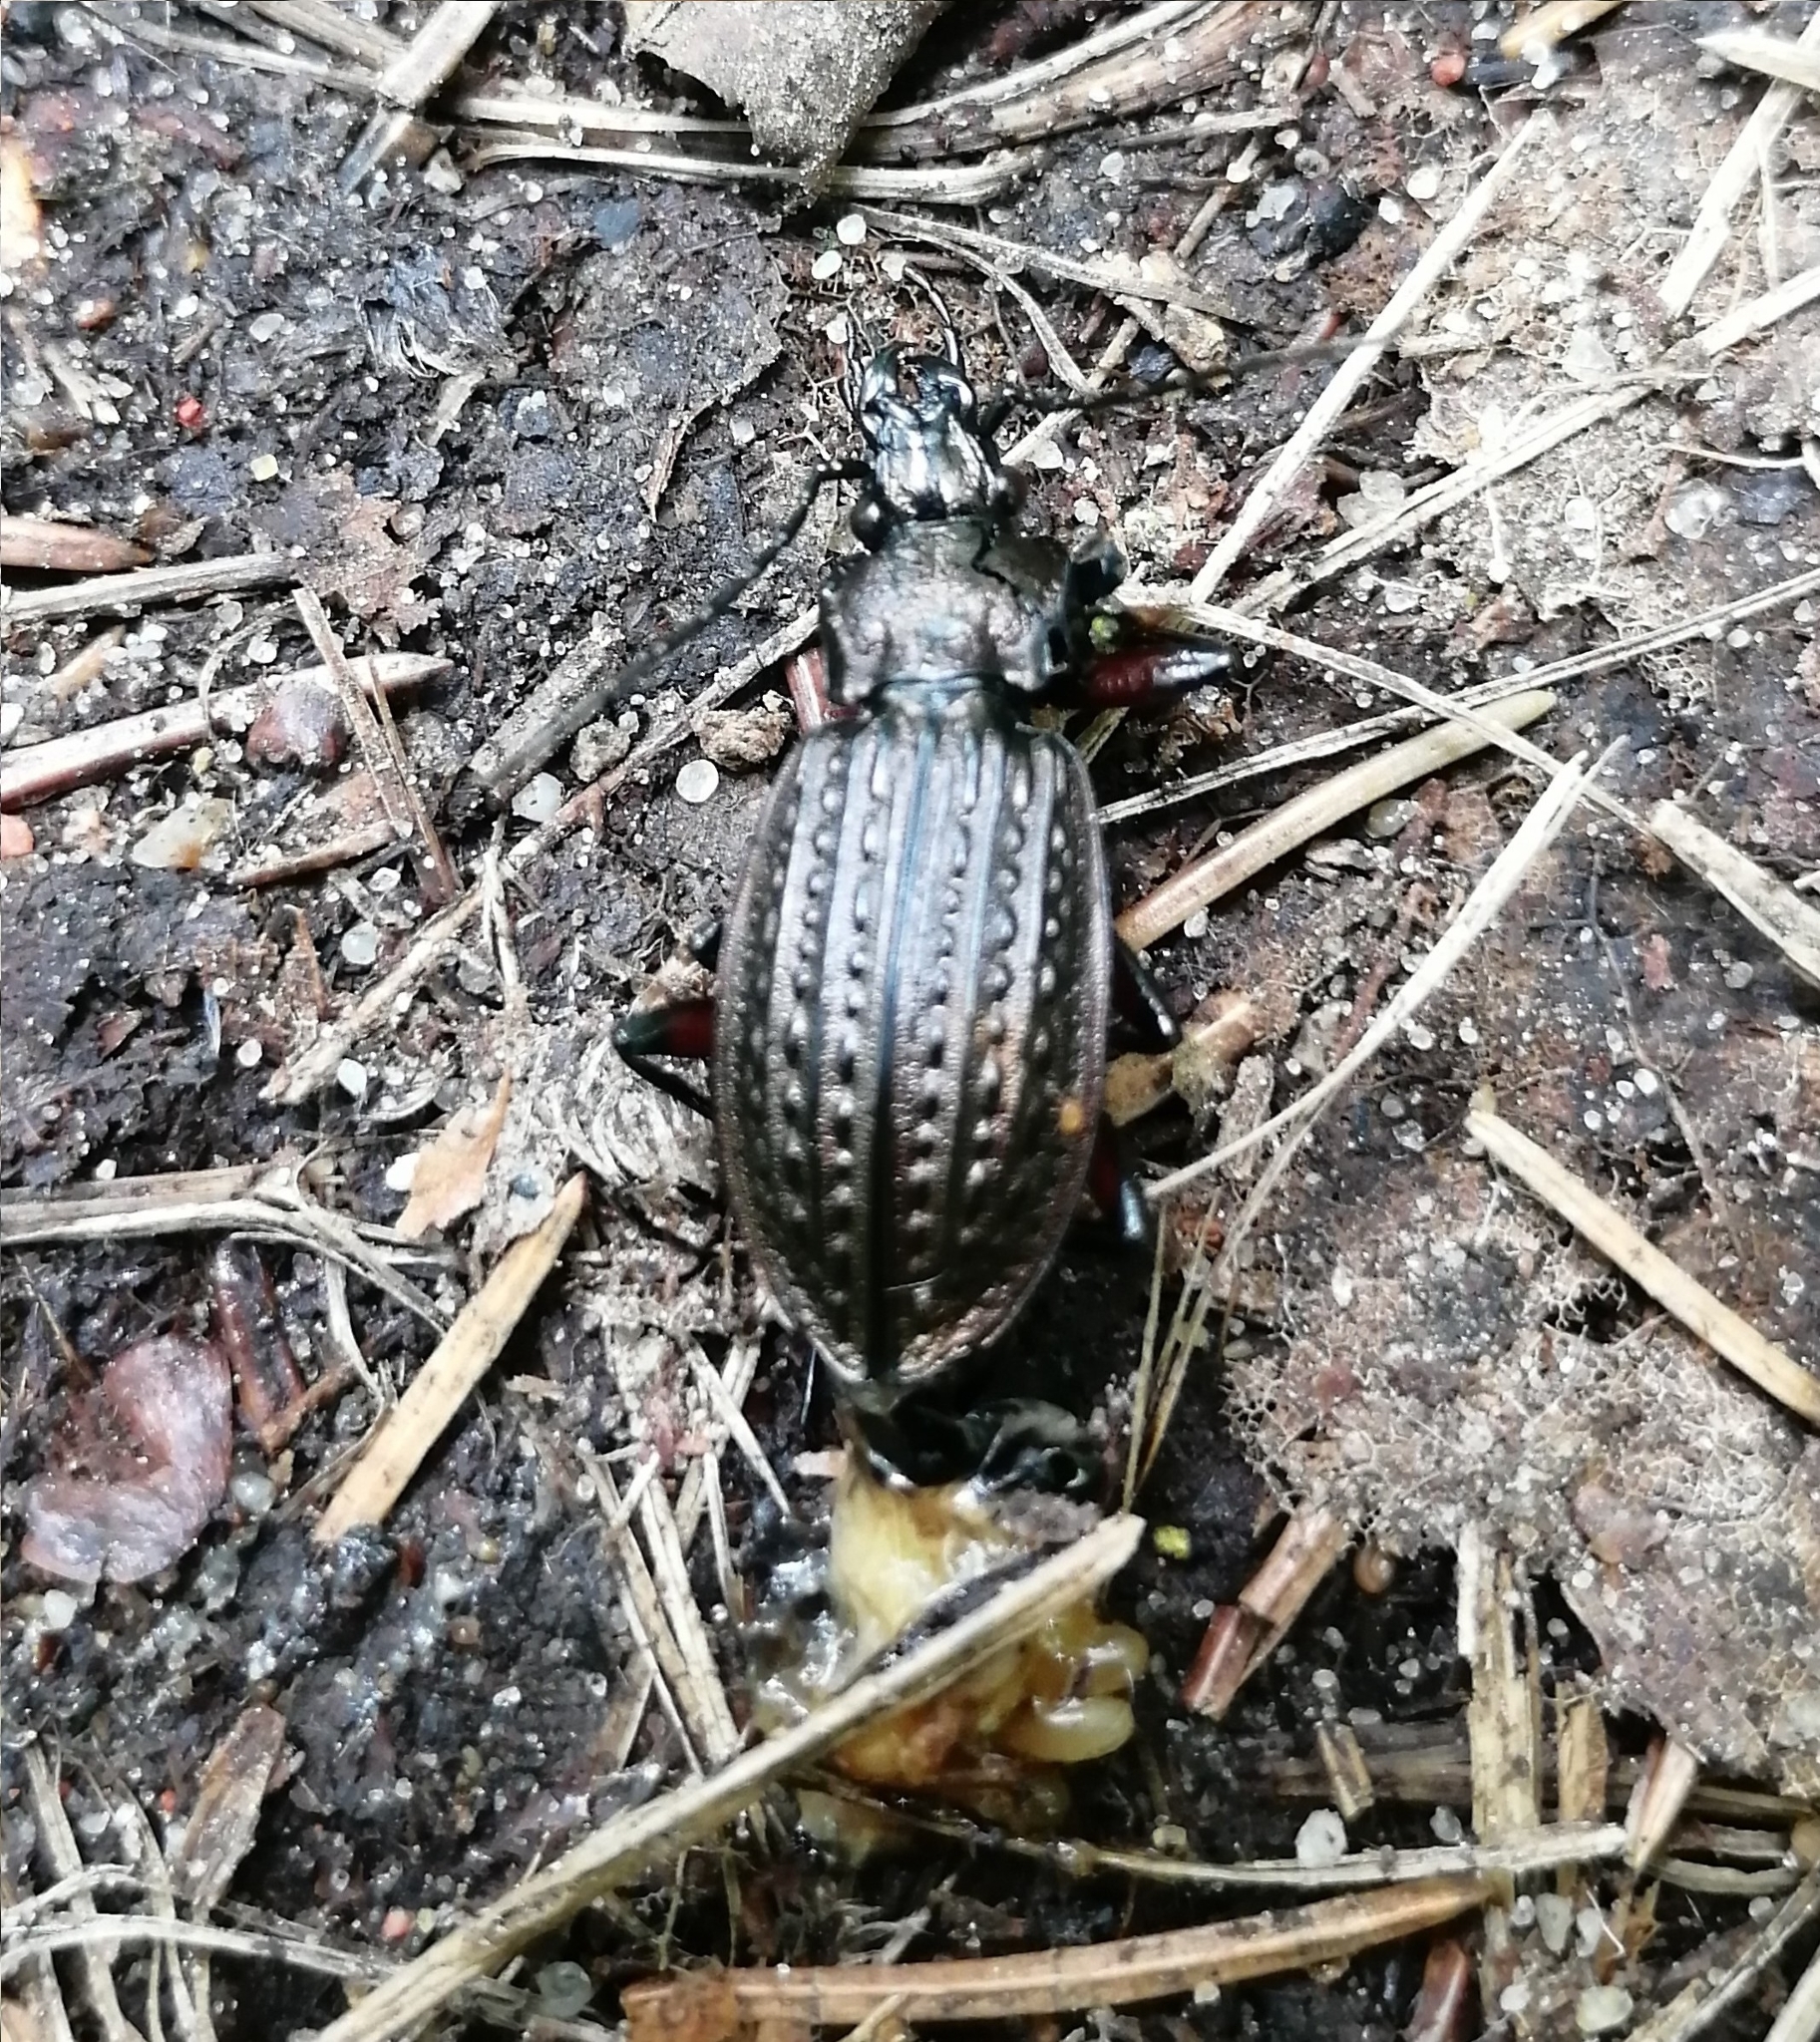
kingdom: Animalia
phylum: Arthropoda
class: Insecta
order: Coleoptera
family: Carabidae
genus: Carabus
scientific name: Carabus granulatus
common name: Granulate ground beetle
